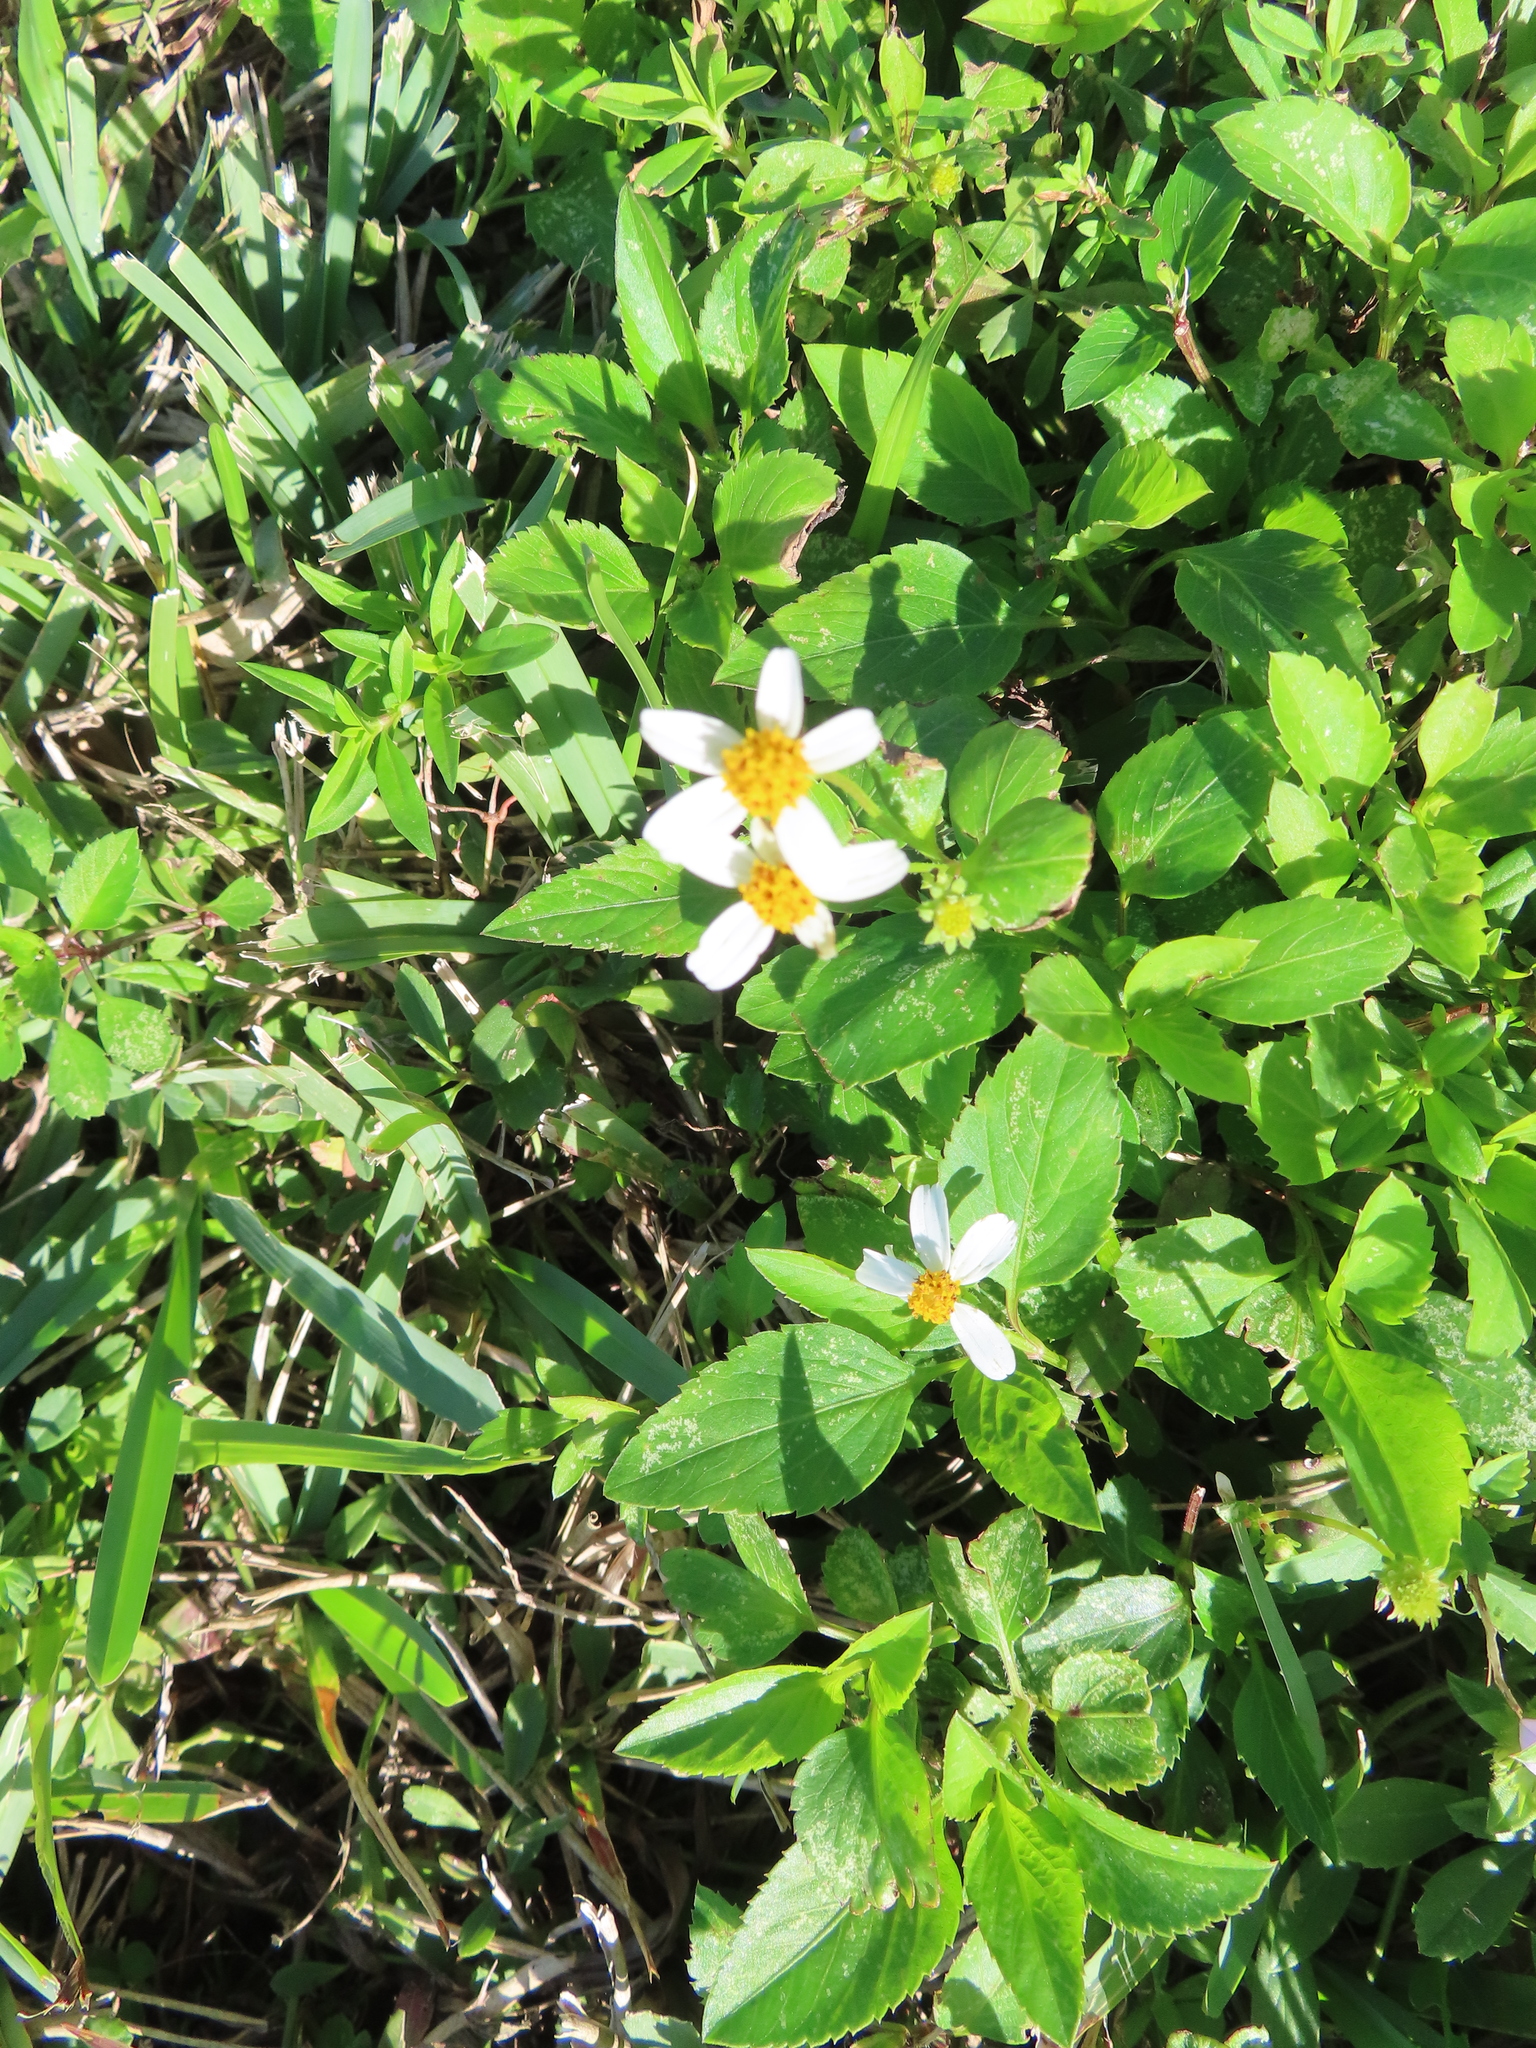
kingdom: Plantae
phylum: Tracheophyta
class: Magnoliopsida
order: Asterales
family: Asteraceae
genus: Bidens
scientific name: Bidens alba
